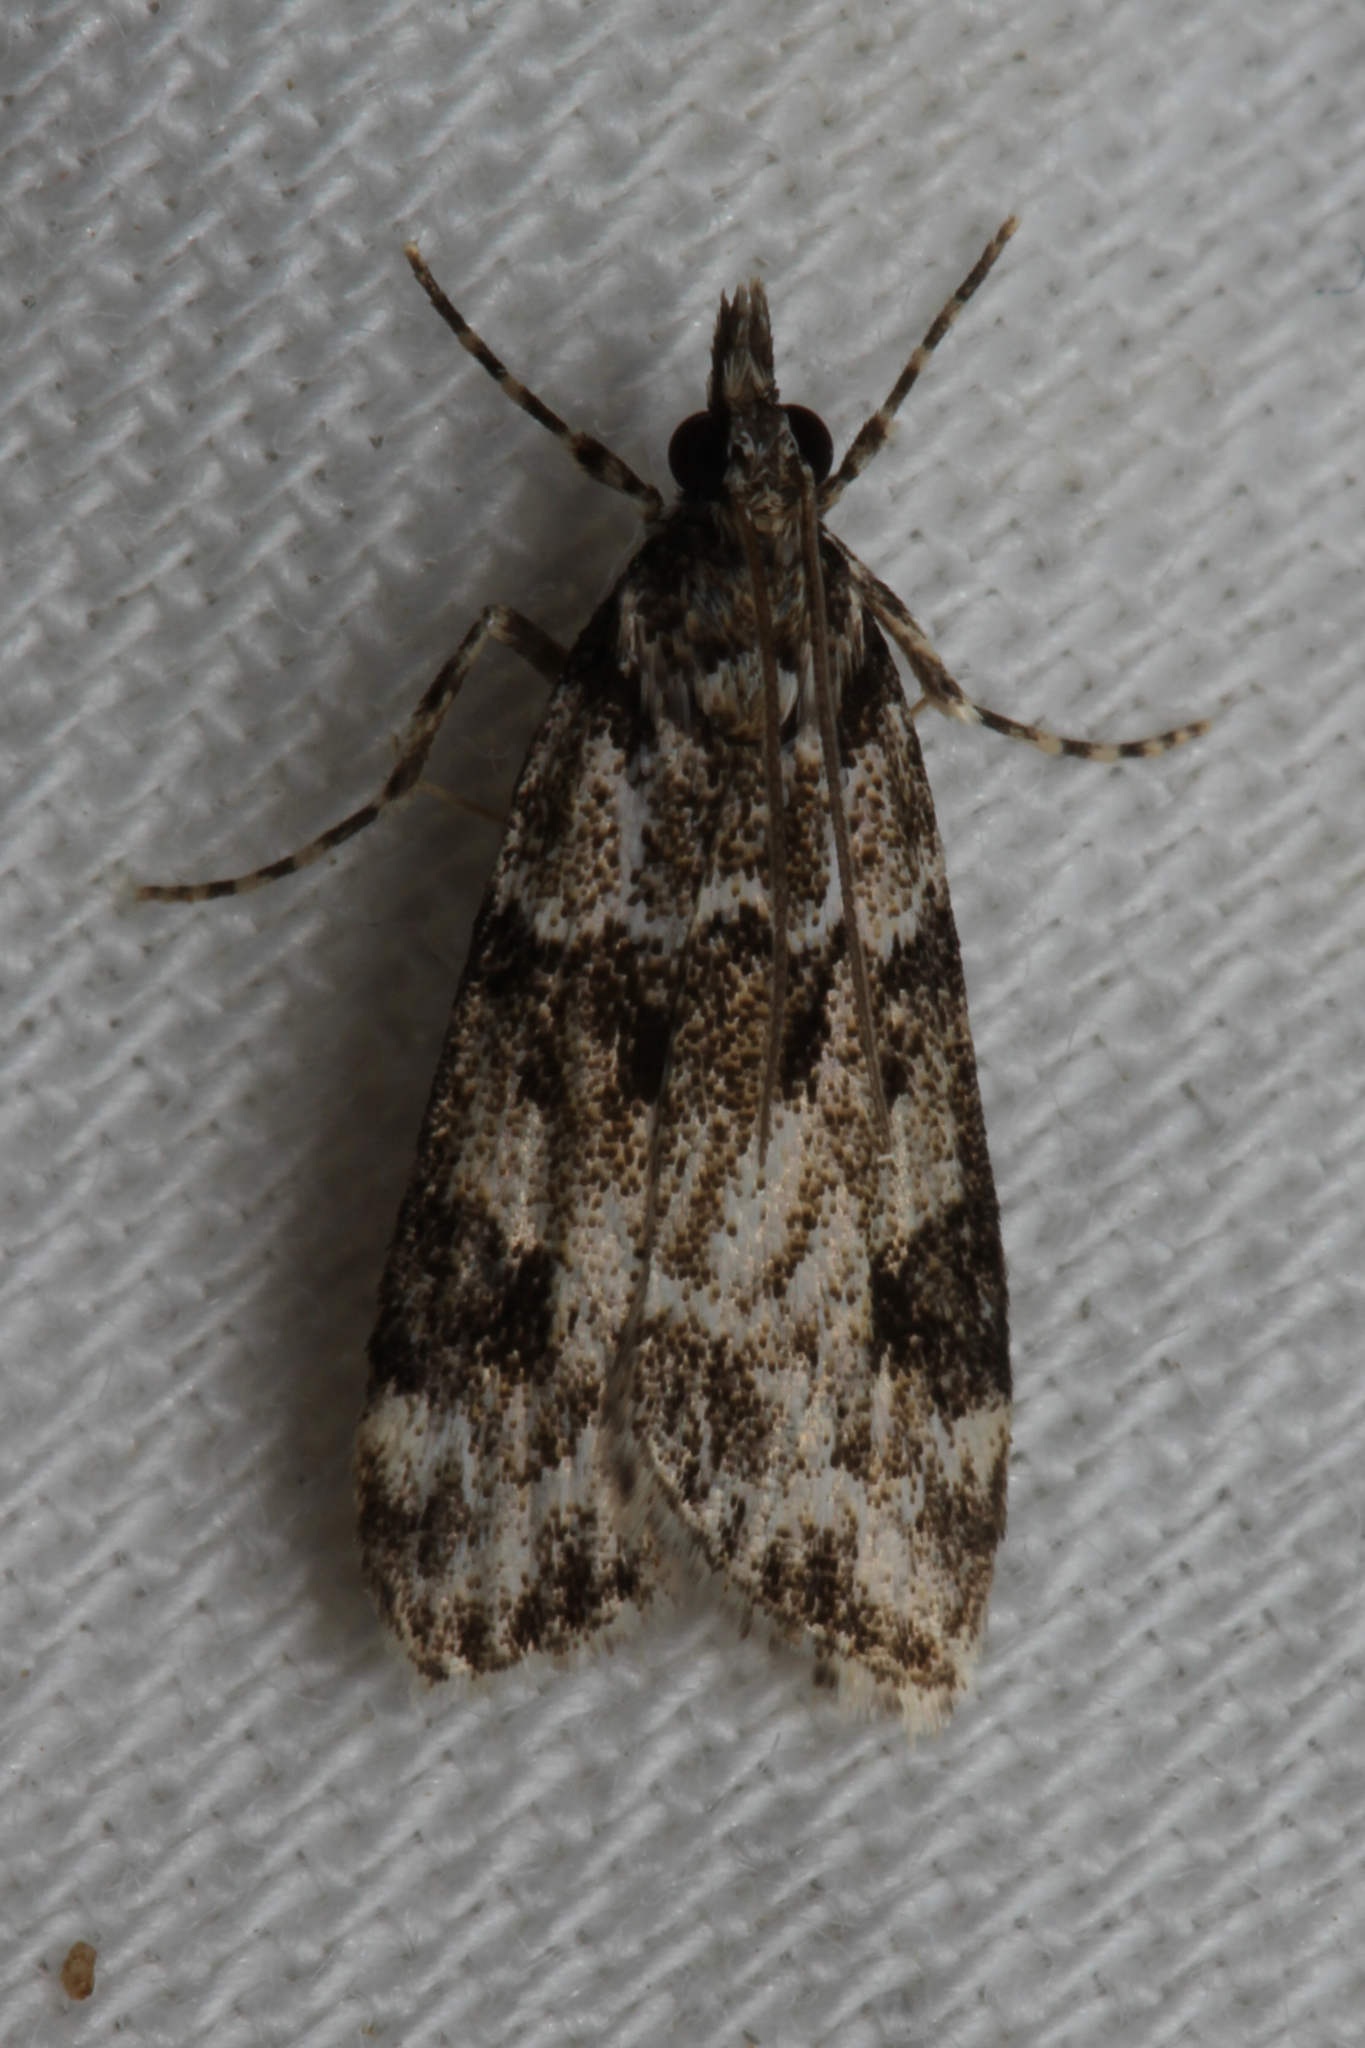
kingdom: Animalia
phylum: Arthropoda
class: Insecta
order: Lepidoptera
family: Crambidae
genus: Eudonia
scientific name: Eudonia delunella
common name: Pied grey
